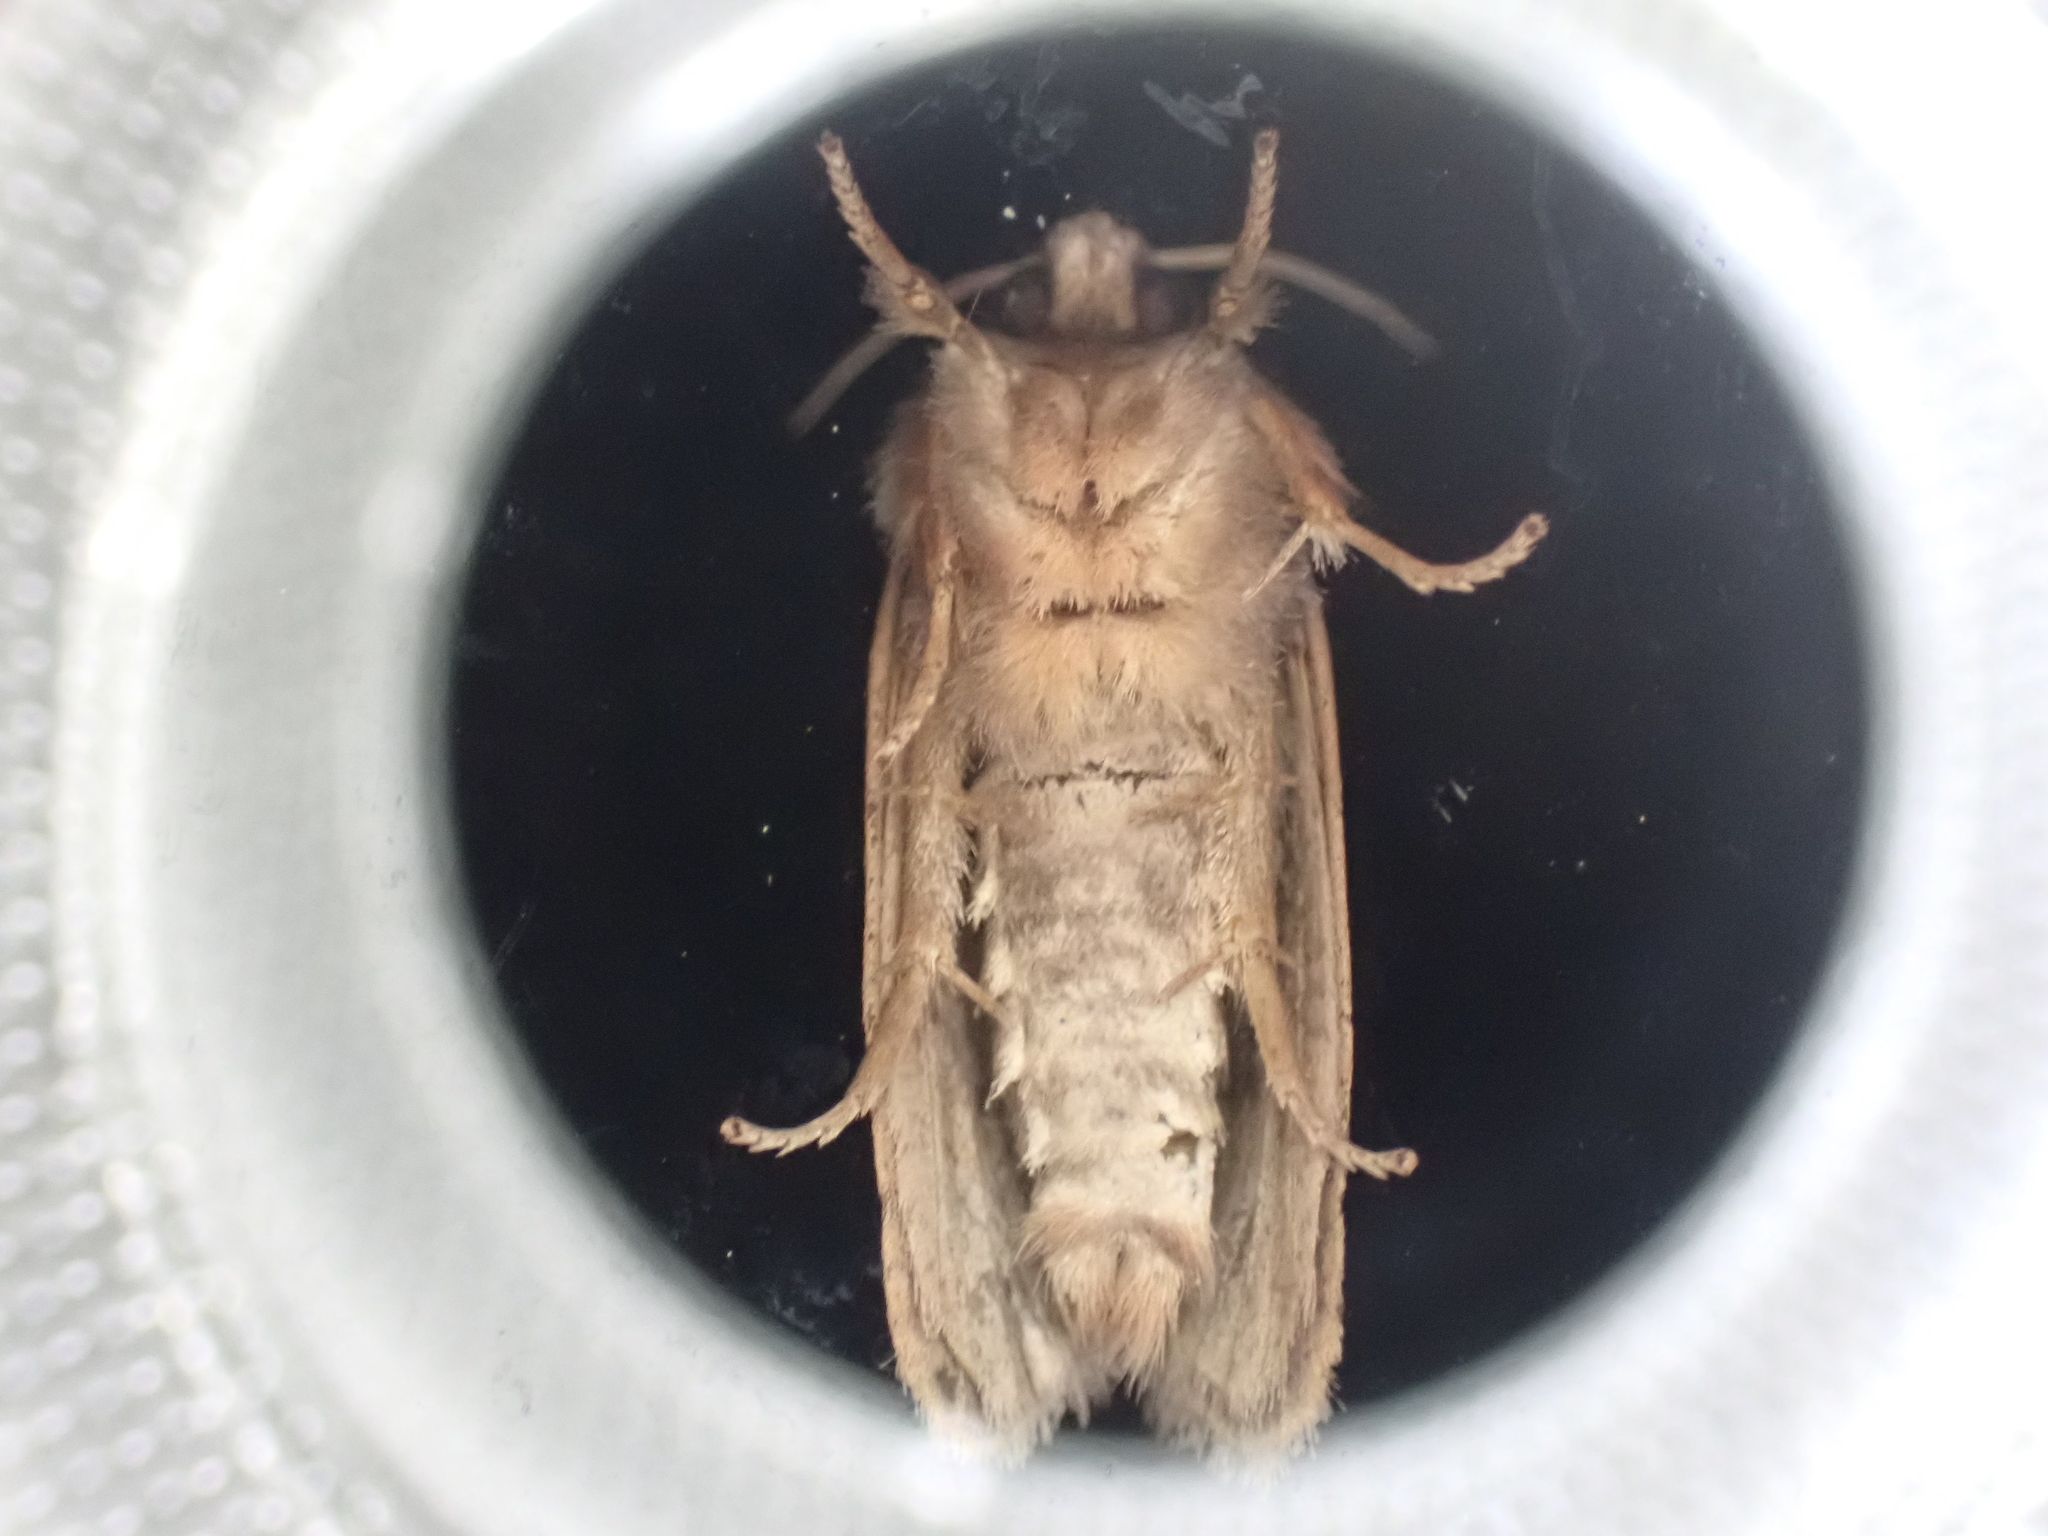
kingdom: Animalia
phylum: Arthropoda
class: Insecta
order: Lepidoptera
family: Tineidae
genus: Acrolophus
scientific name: Acrolophus plumifrontella
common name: Eastern grass tubeworm moth
